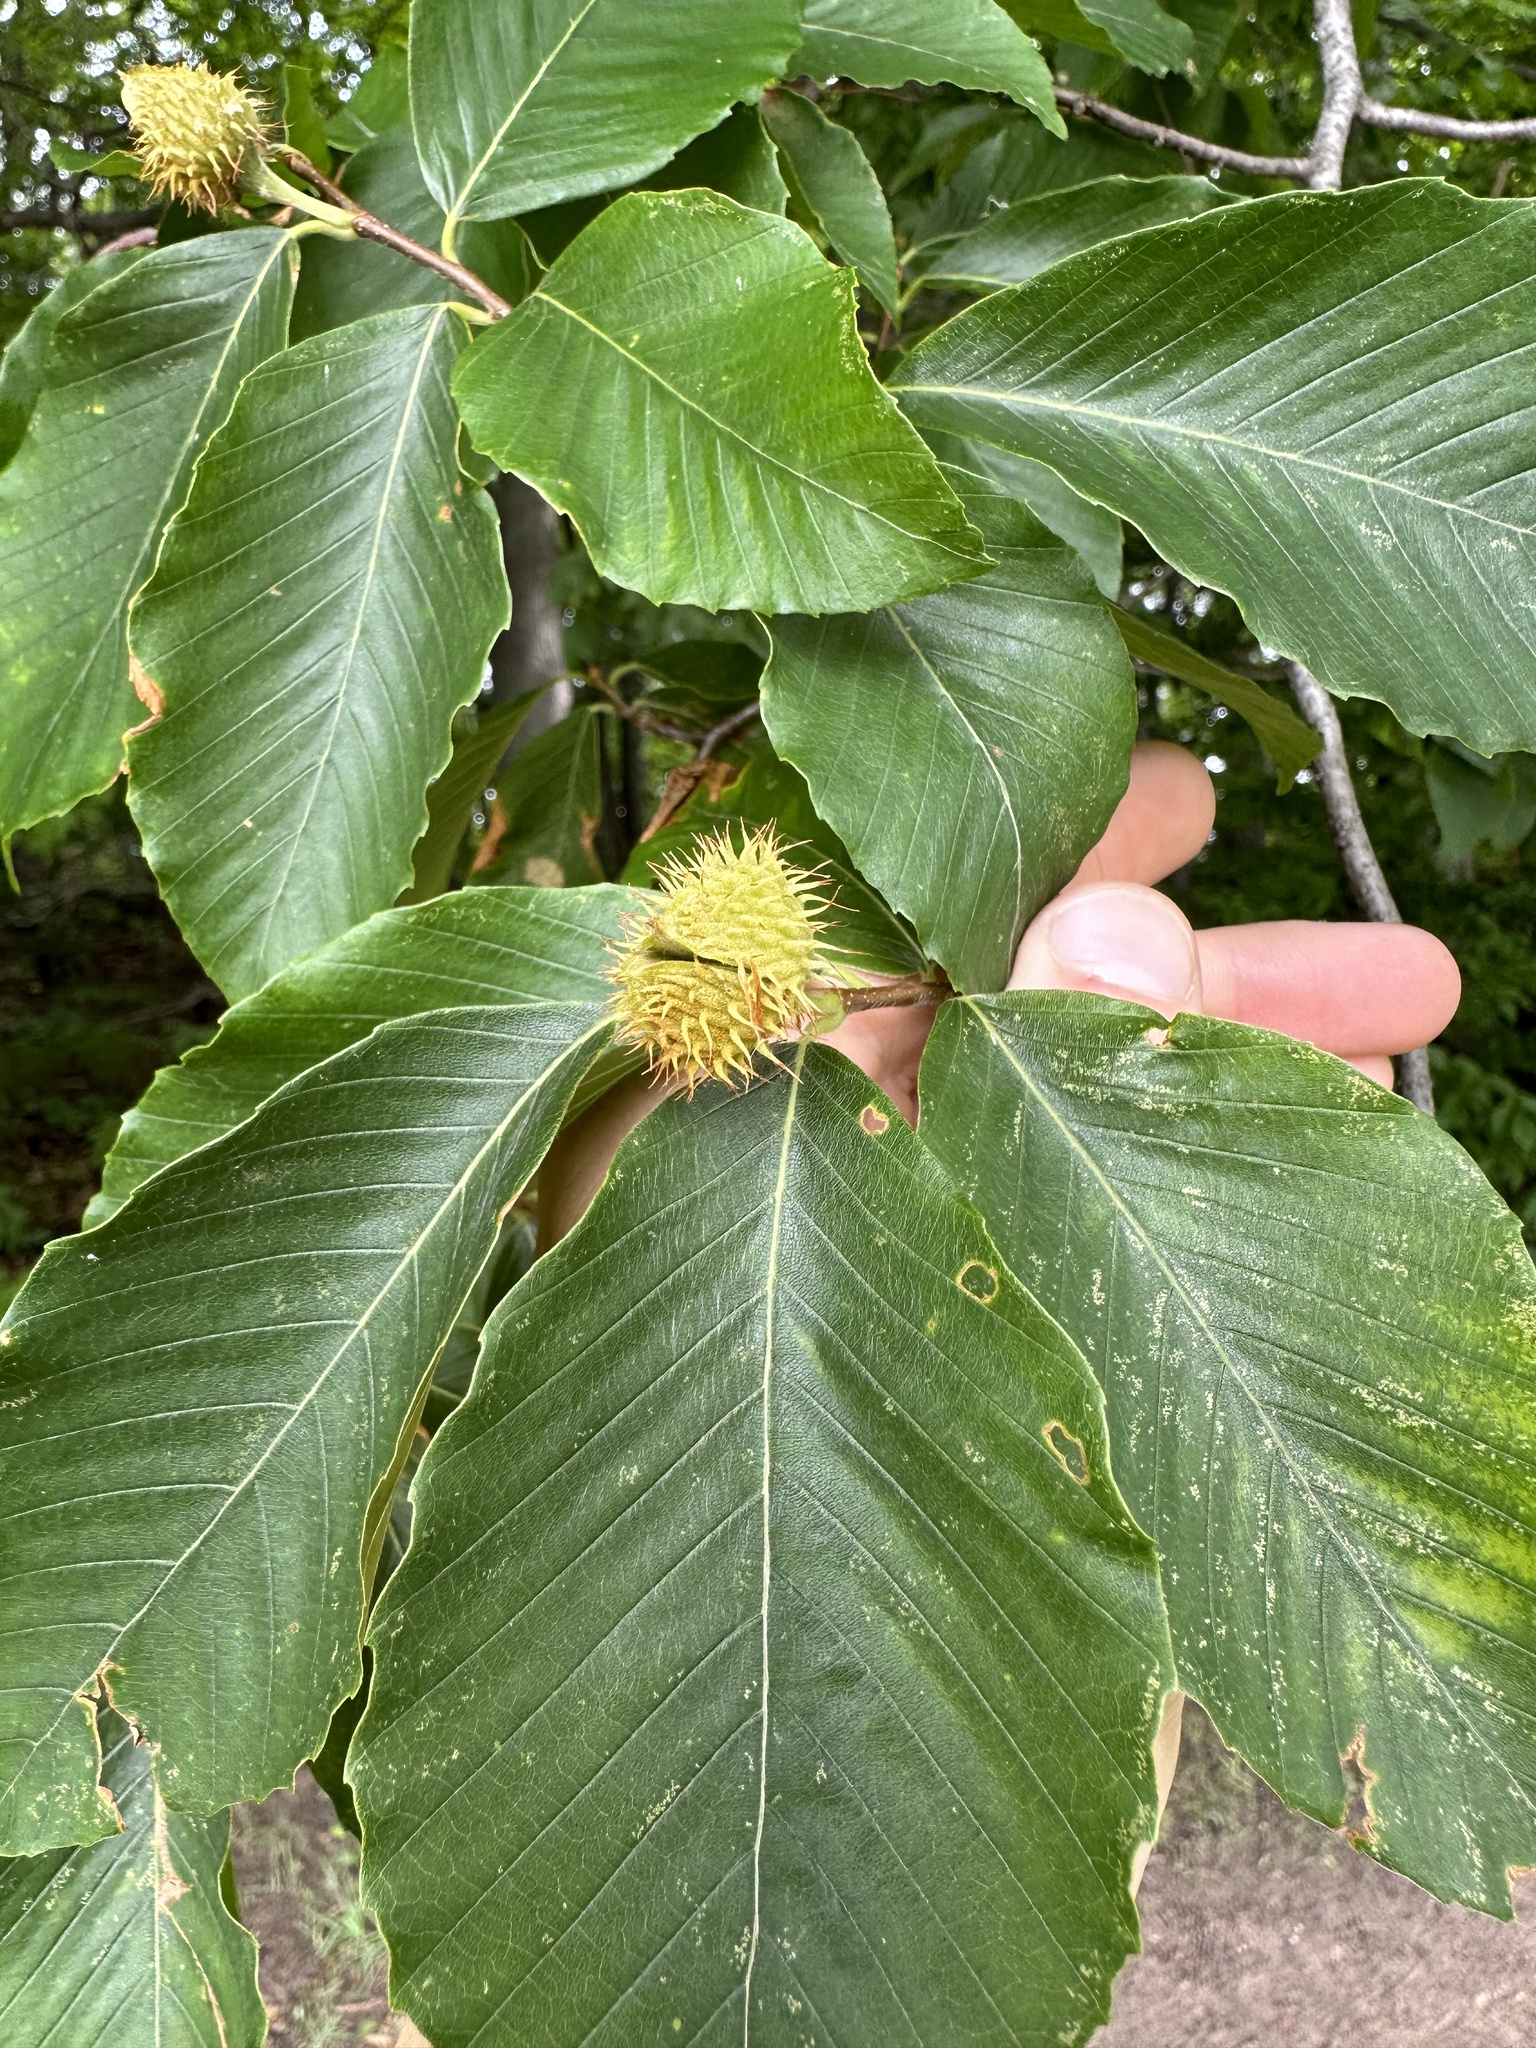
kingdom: Plantae
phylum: Tracheophyta
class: Magnoliopsida
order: Fagales
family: Fagaceae
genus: Fagus
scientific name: Fagus grandifolia
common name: American beech
